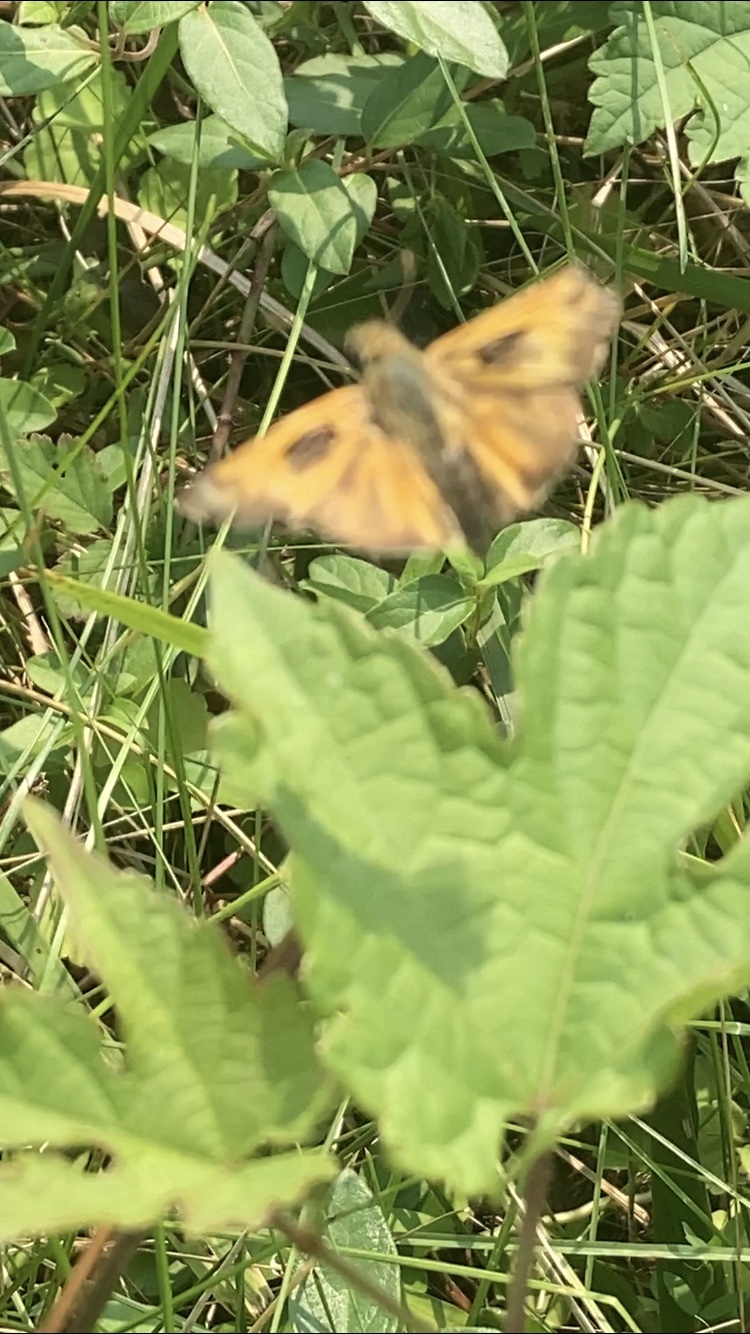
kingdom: Animalia
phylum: Arthropoda
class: Insecta
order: Lepidoptera
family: Hesperiidae
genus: Atalopedes
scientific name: Atalopedes
